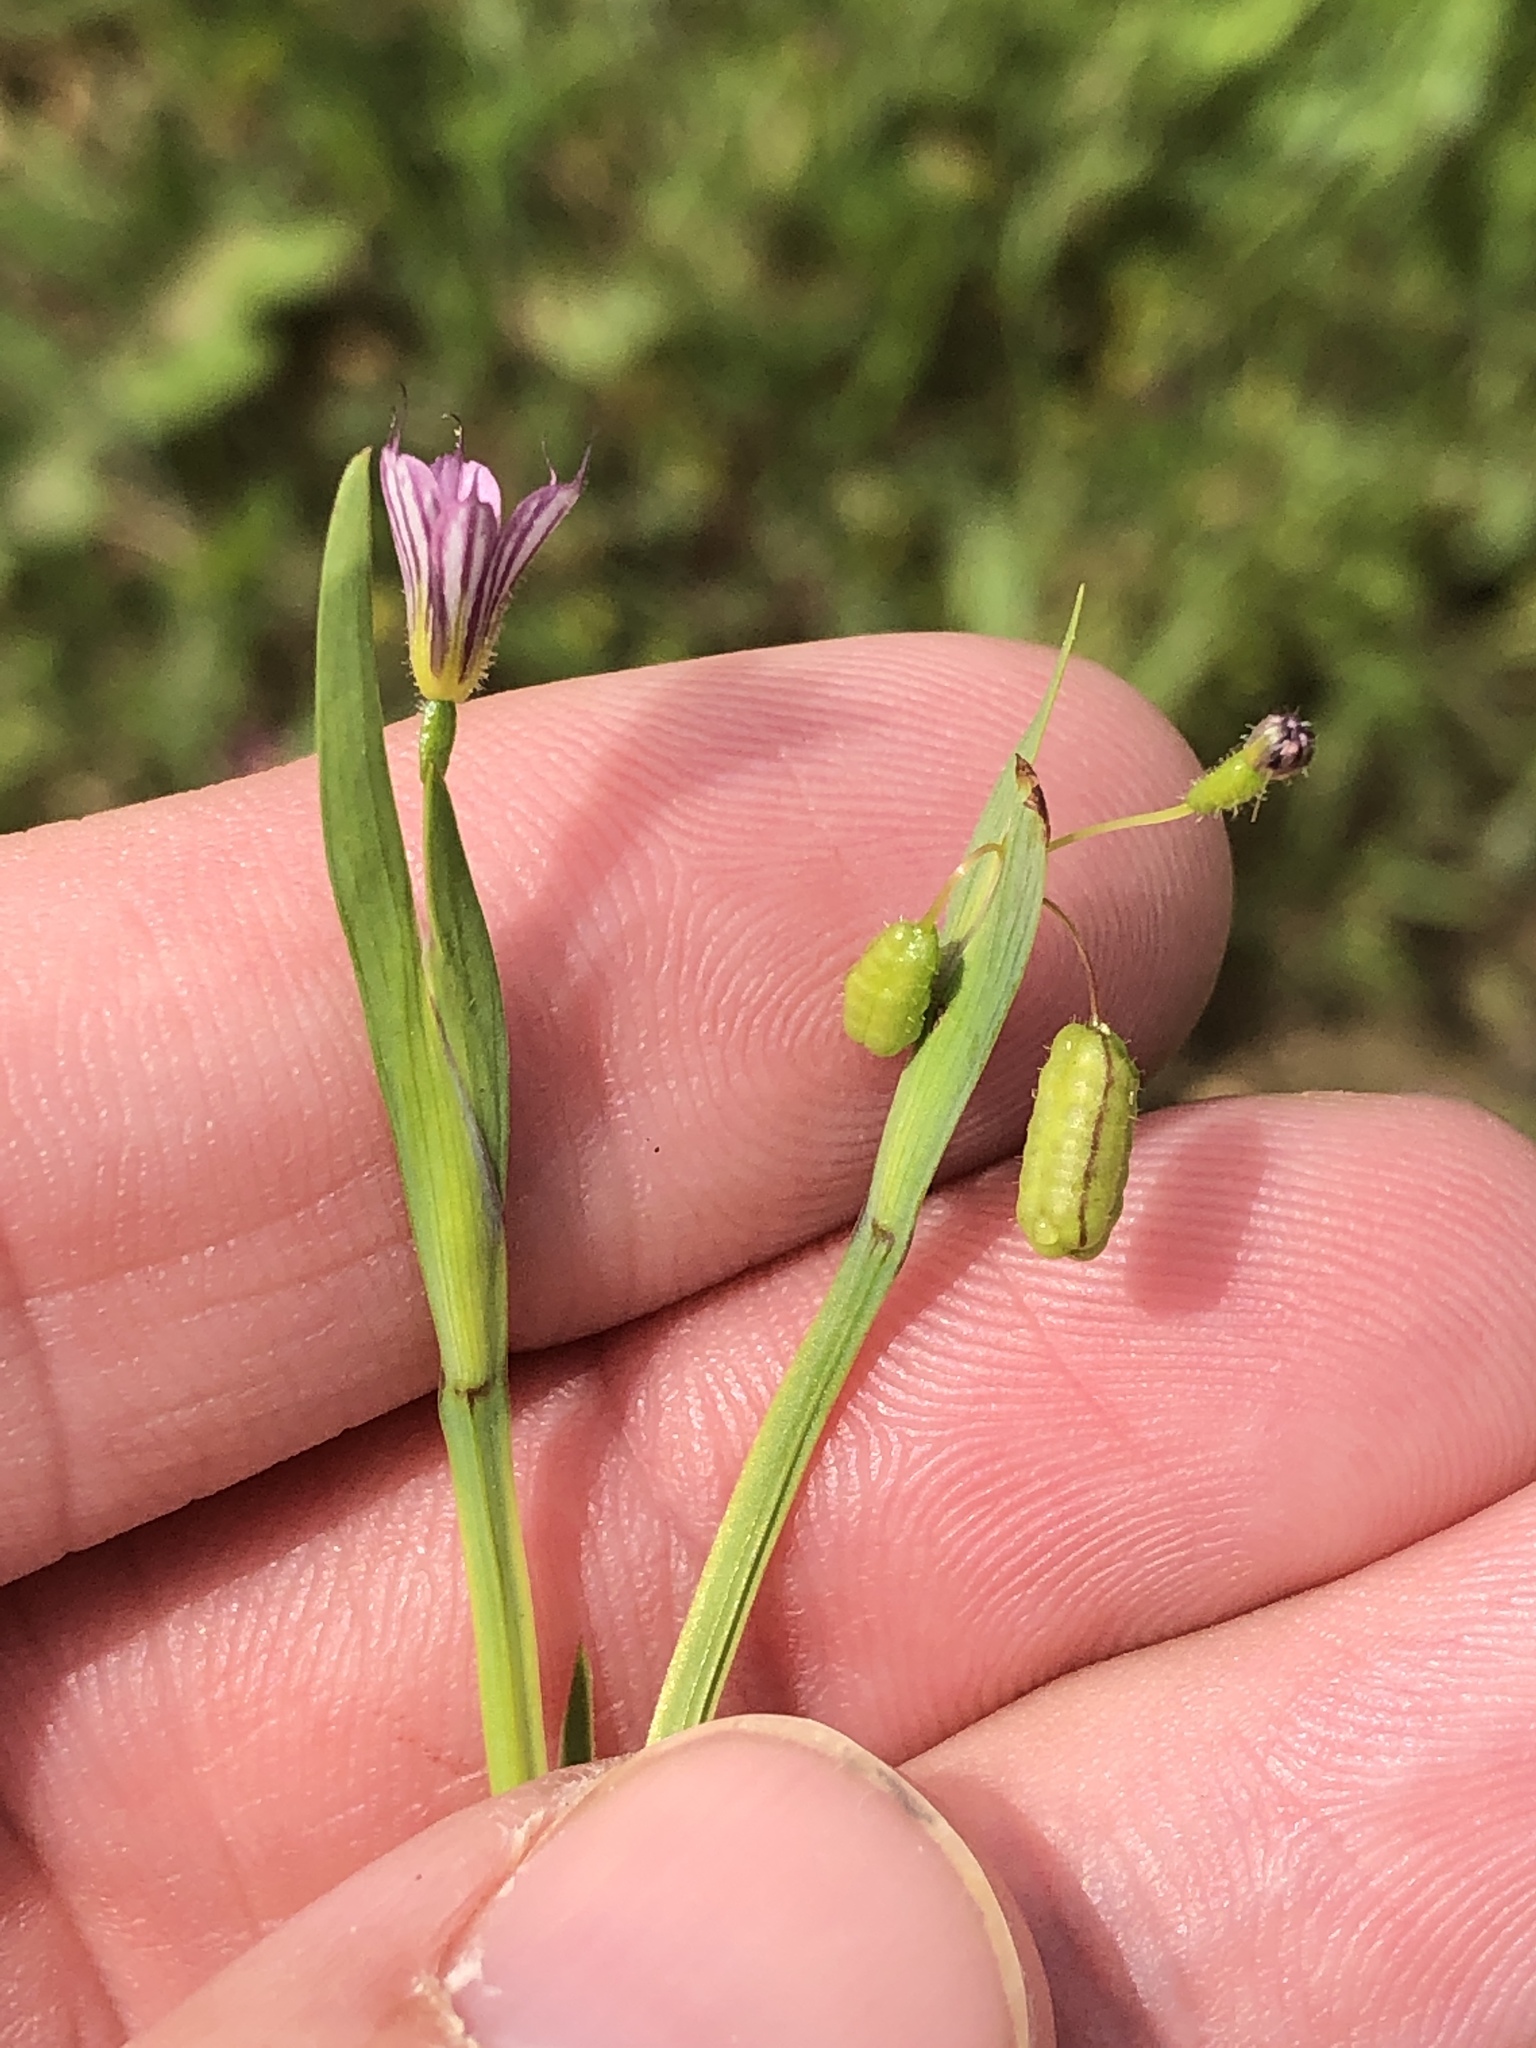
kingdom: Plantae
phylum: Tracheophyta
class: Liliopsida
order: Asparagales
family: Iridaceae
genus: Sisyrinchium
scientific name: Sisyrinchium minus
